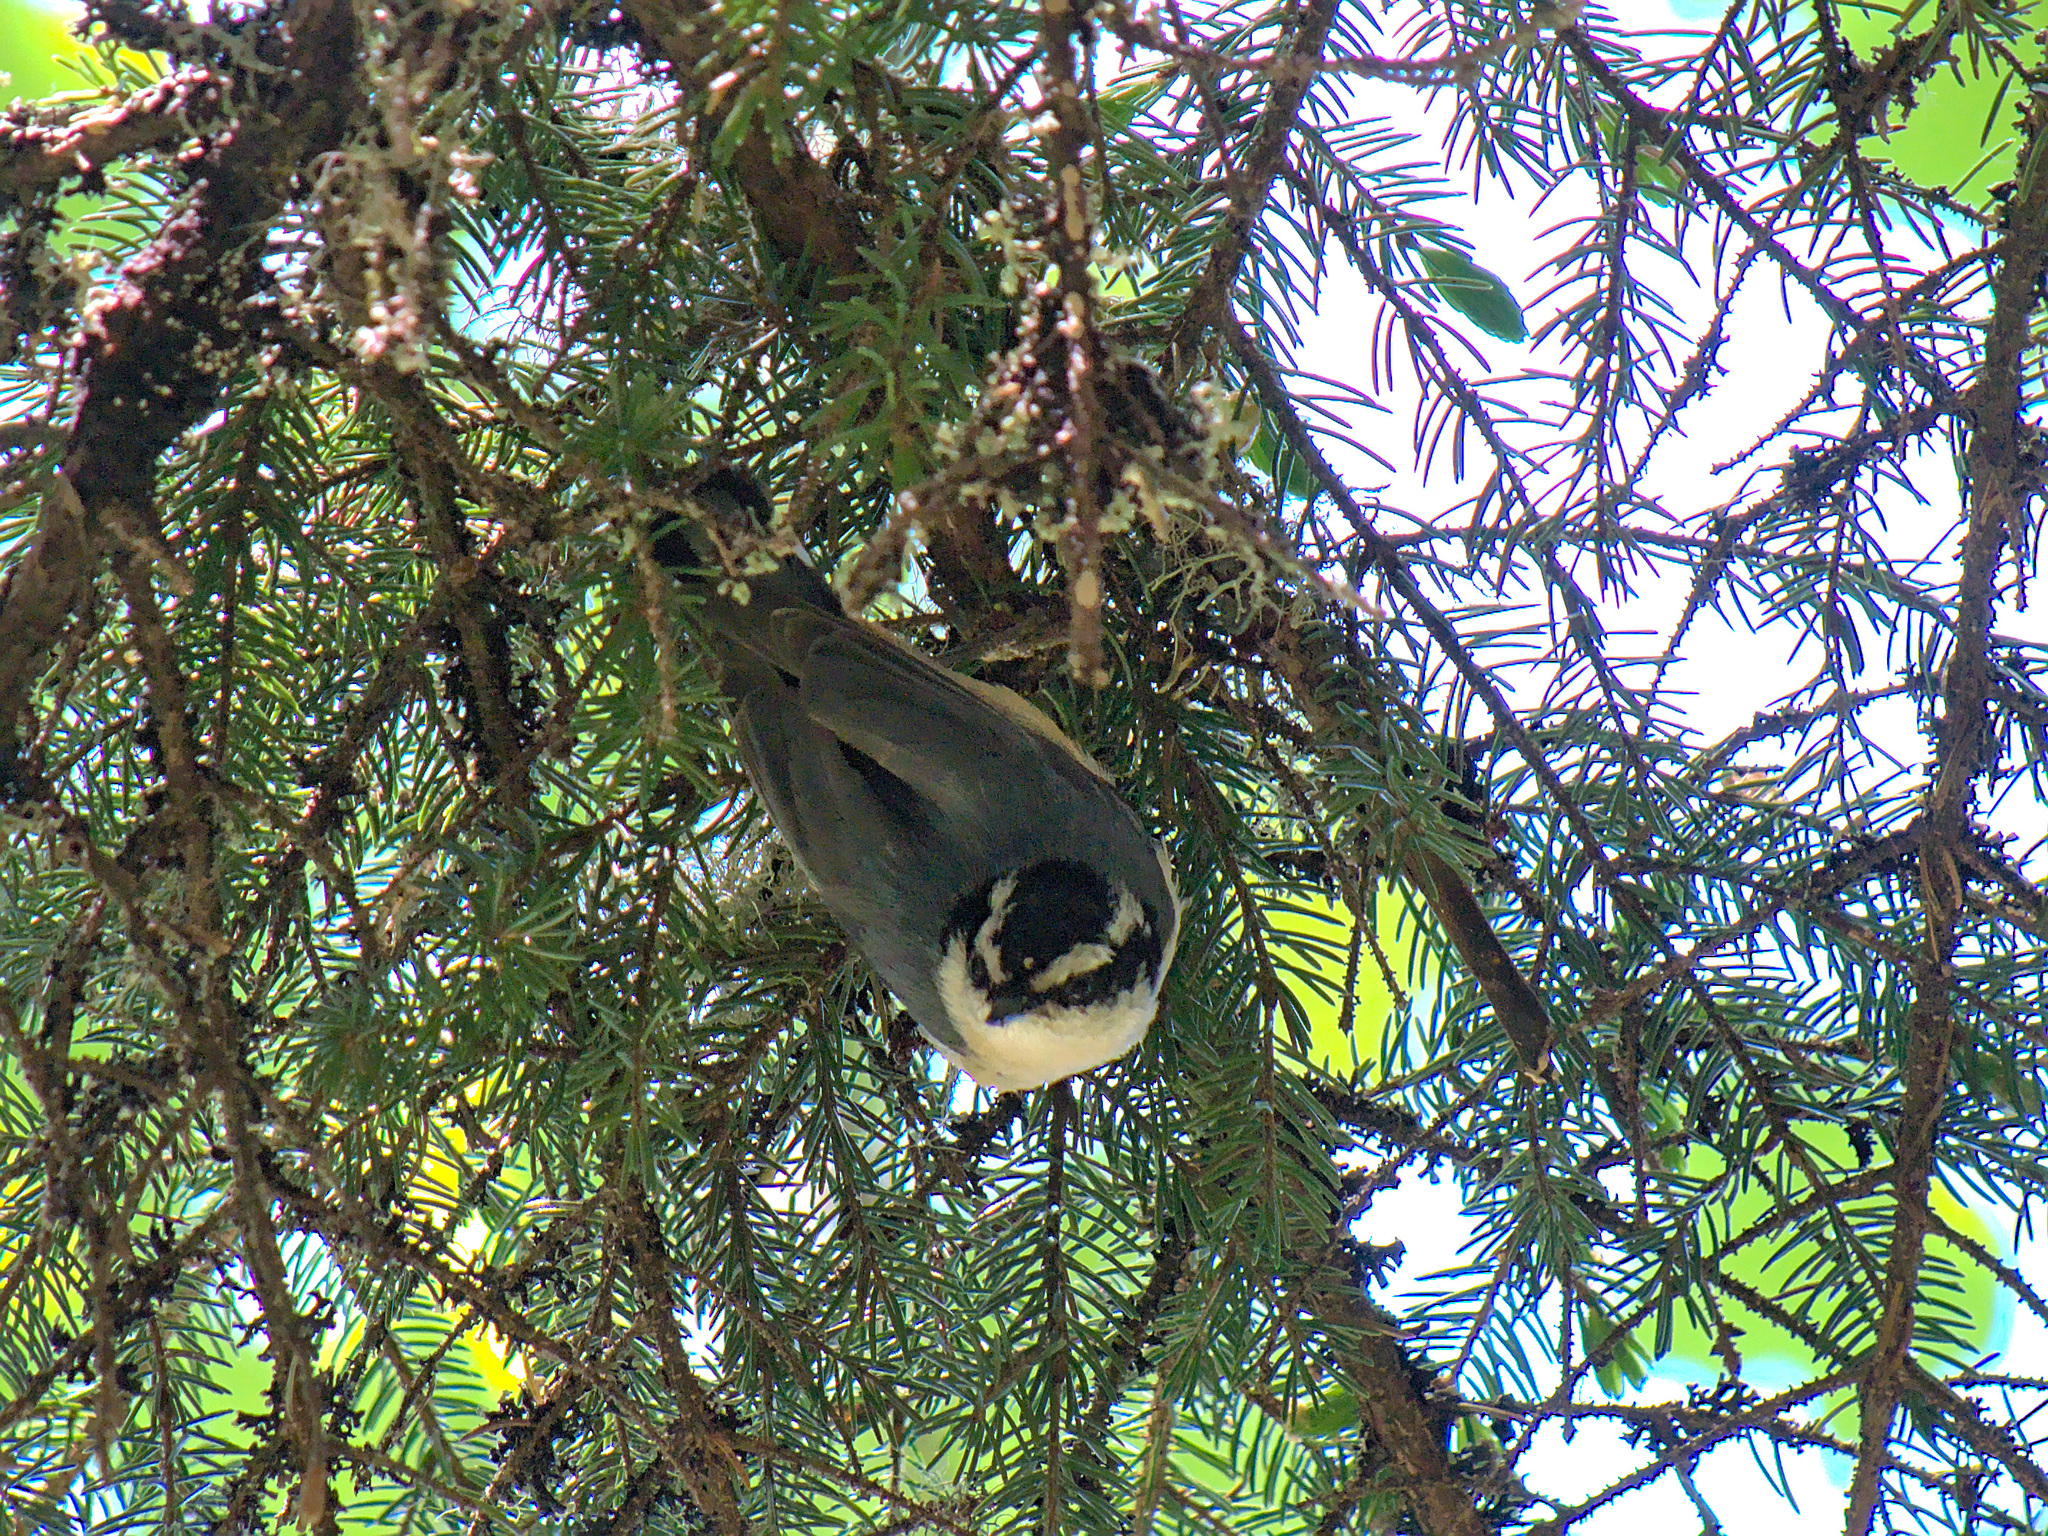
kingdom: Animalia
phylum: Chordata
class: Aves
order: Passeriformes
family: Sittidae
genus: Sitta
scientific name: Sitta canadensis
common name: Red-breasted nuthatch
